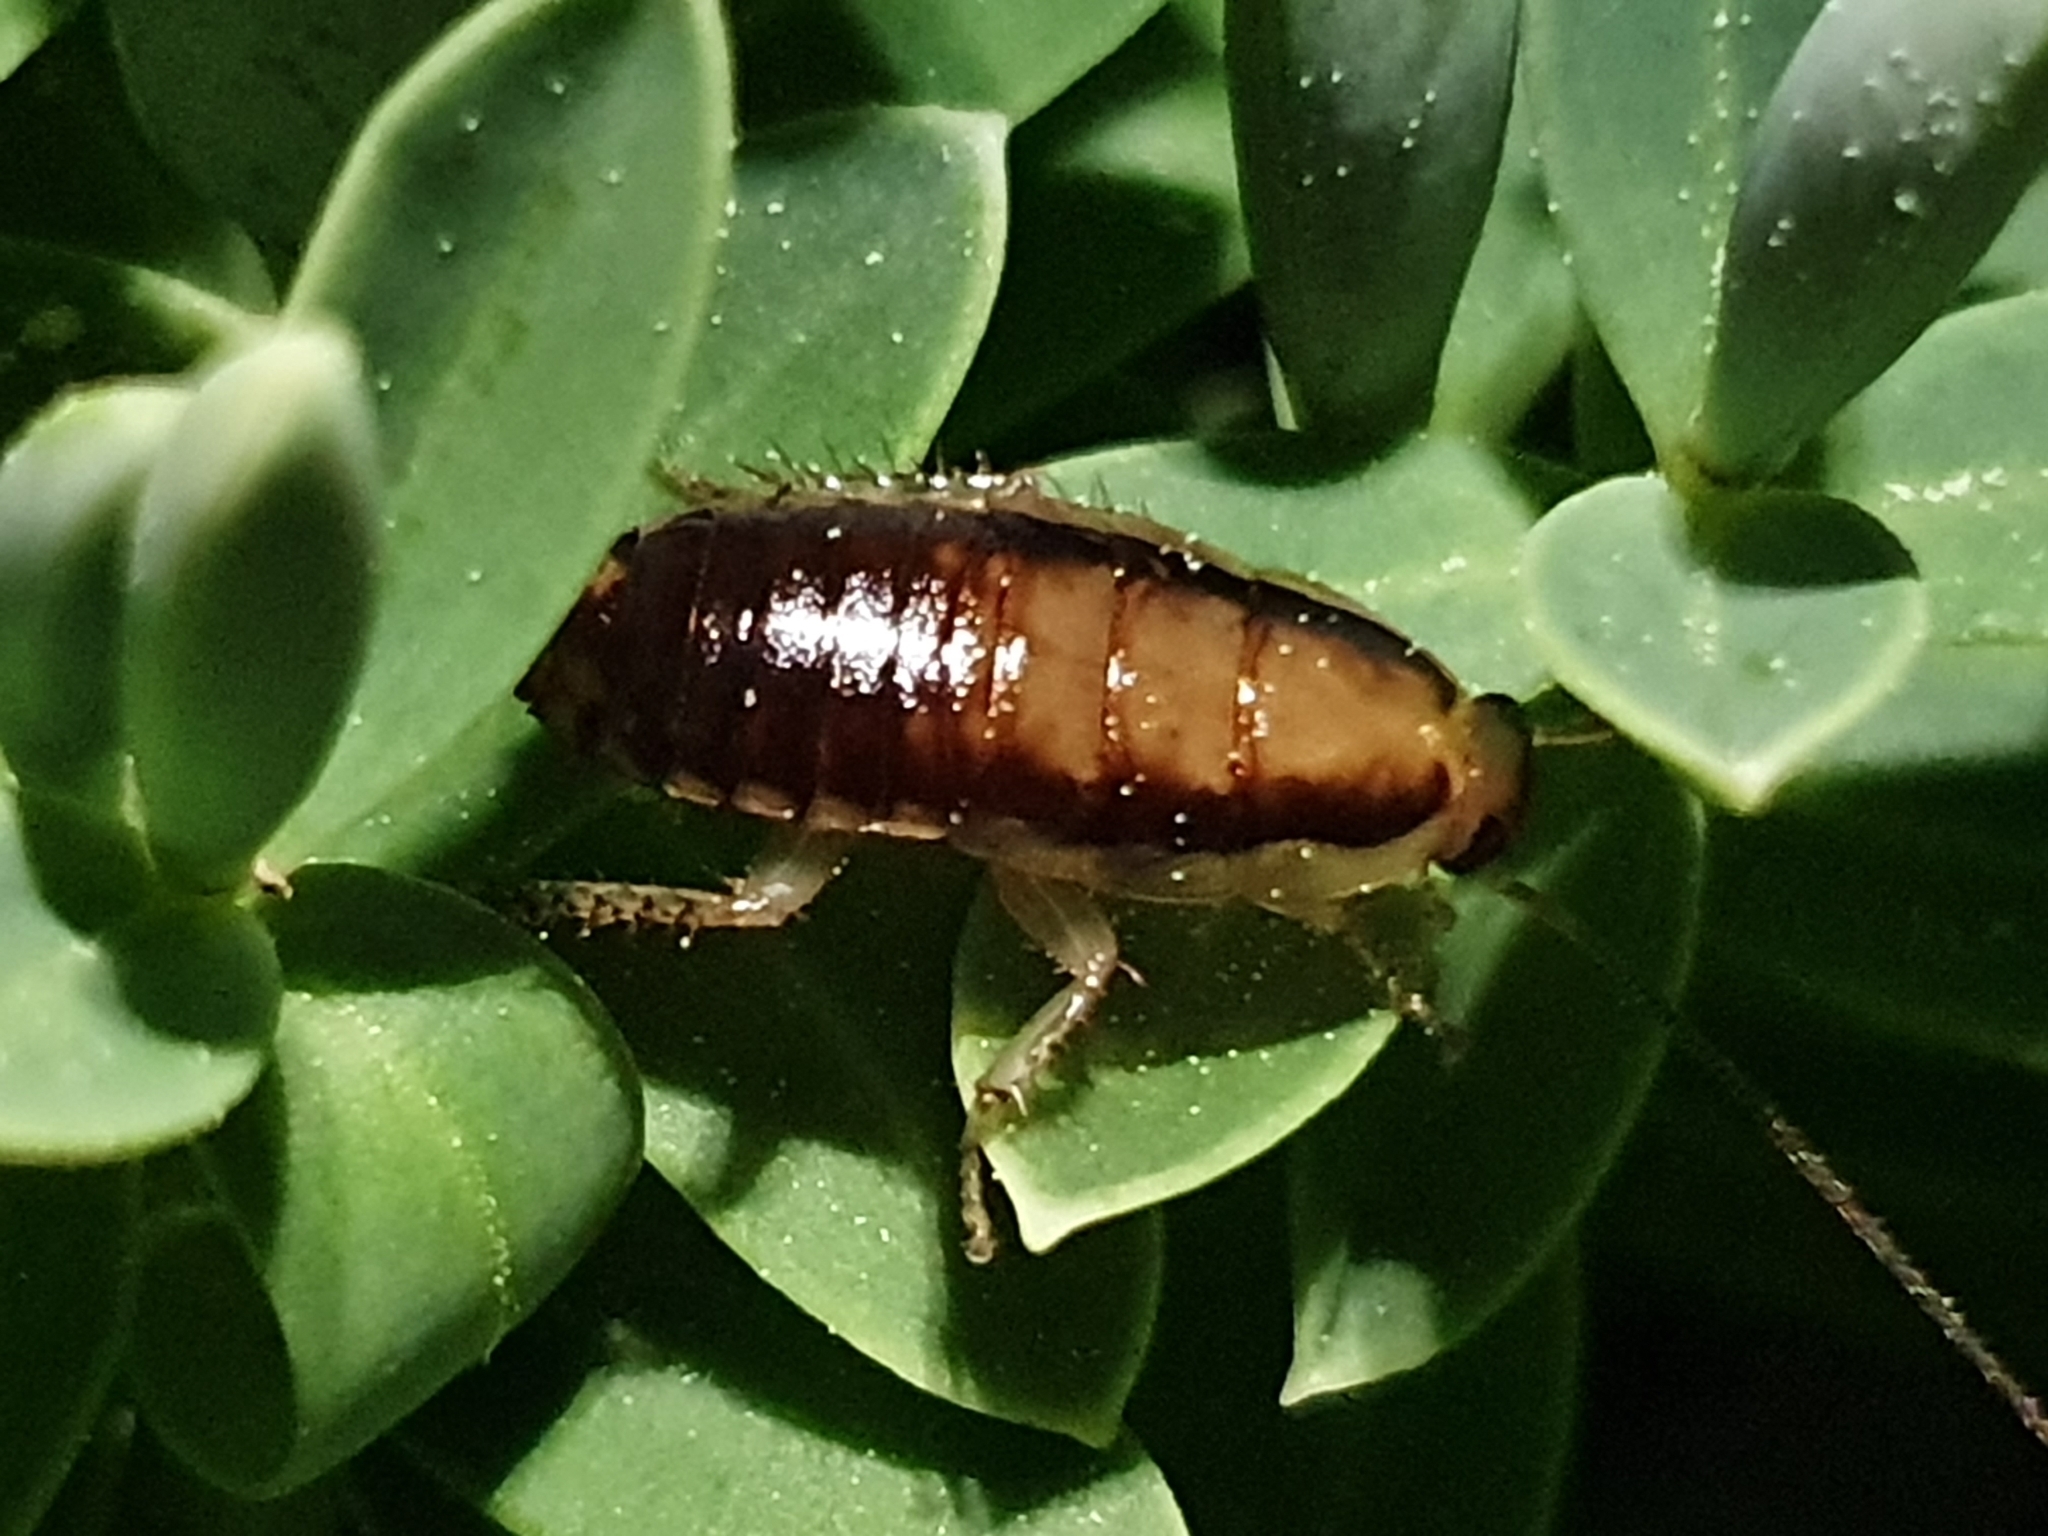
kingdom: Animalia
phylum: Arthropoda
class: Insecta
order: Blattodea
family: Blattidae
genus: Celatoblatta
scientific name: Celatoblatta vulgaris
